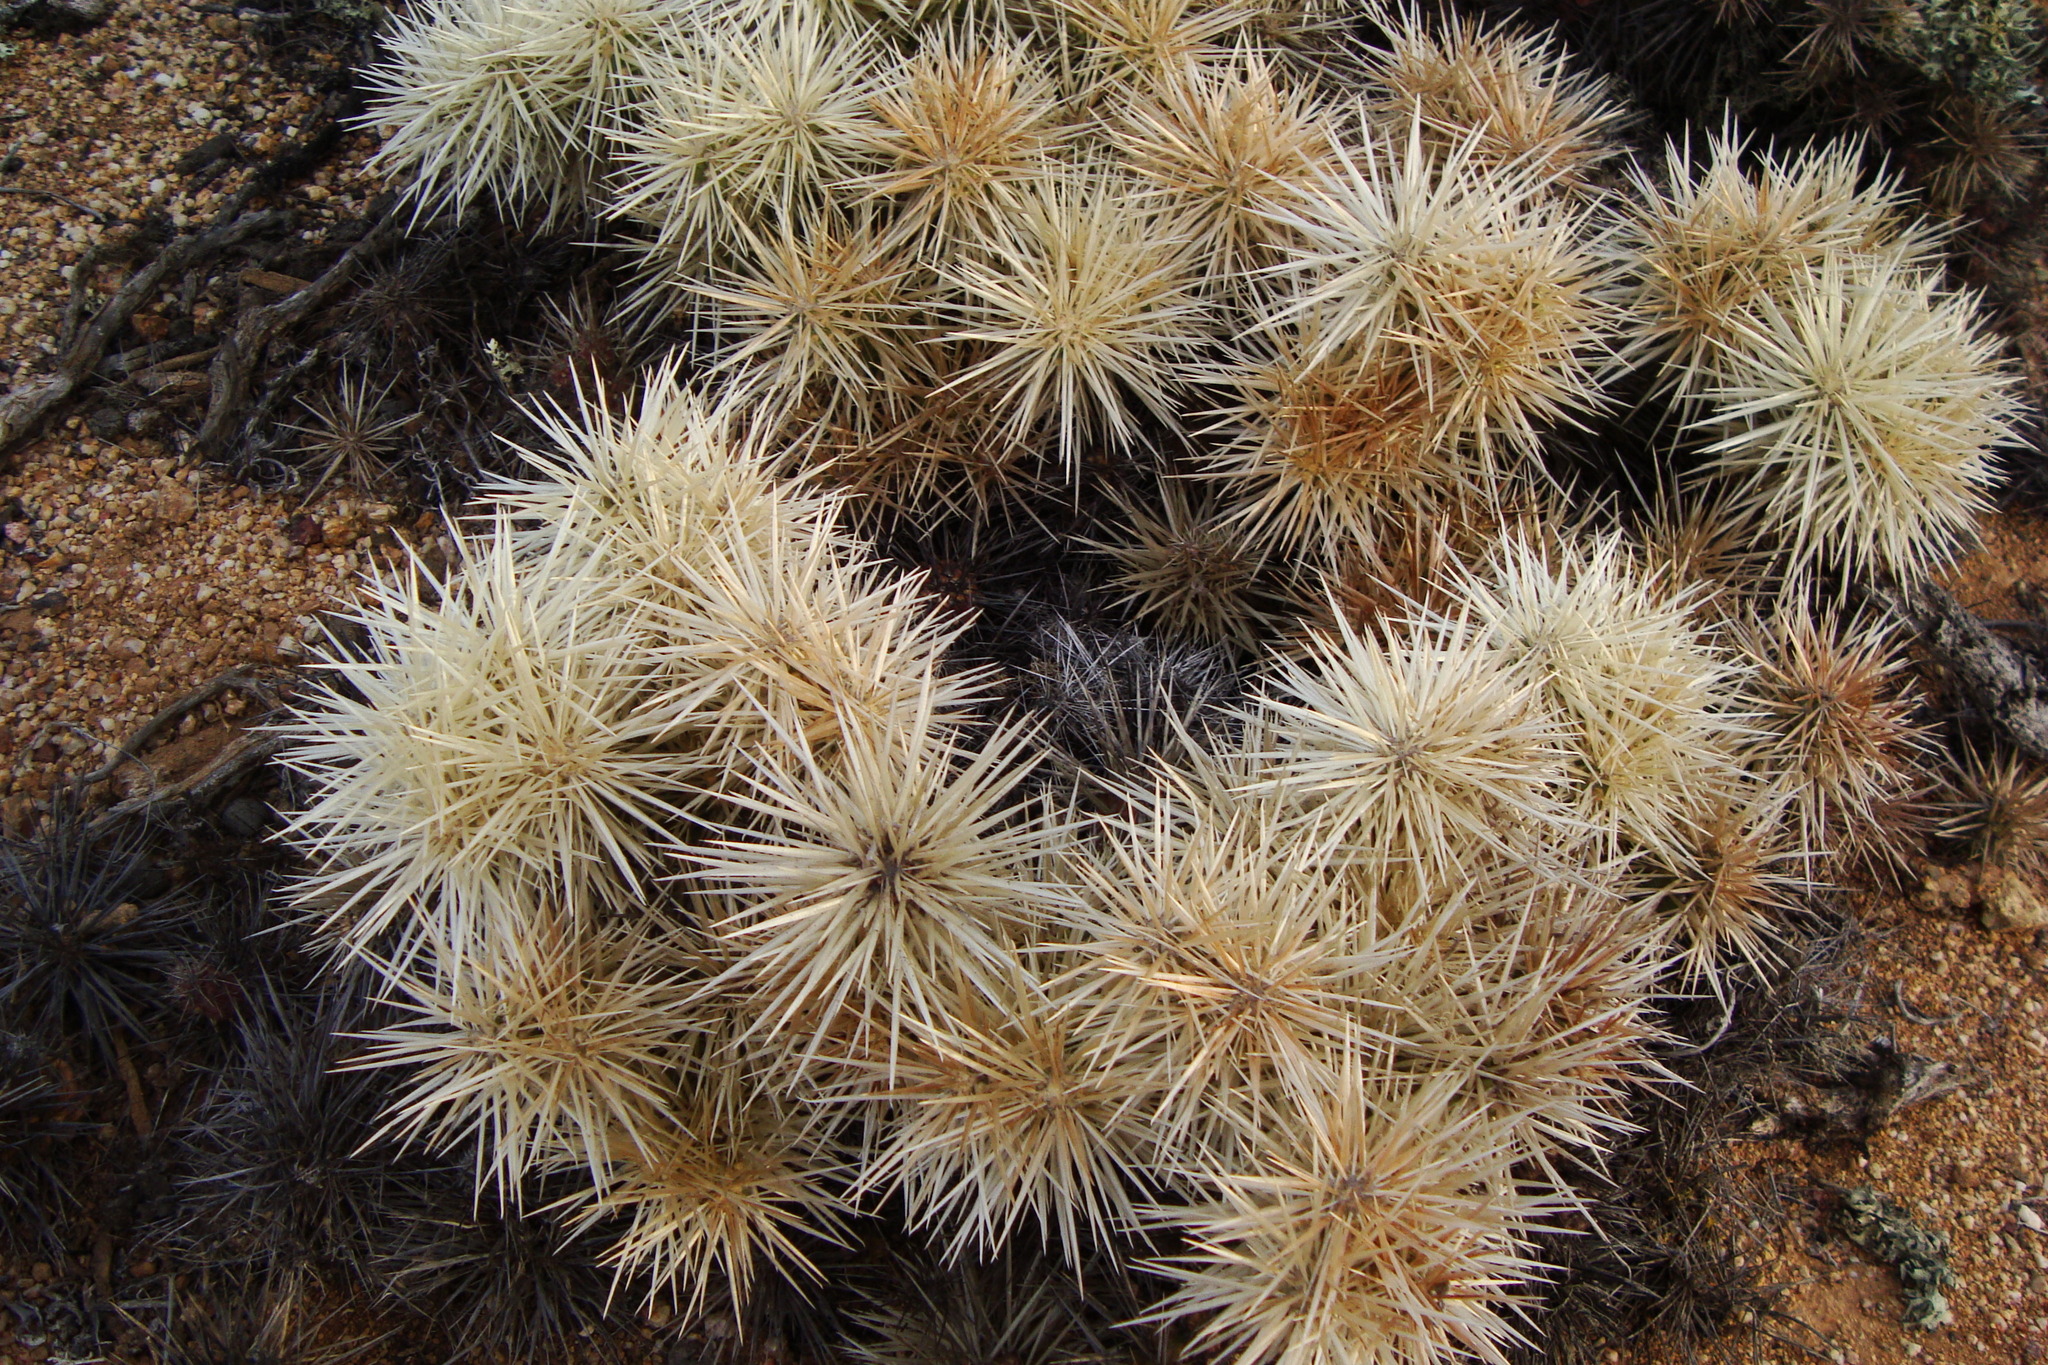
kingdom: Plantae
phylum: Tracheophyta
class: Magnoliopsida
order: Caryophyllales
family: Cactaceae
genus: Cylindropuntia
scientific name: Cylindropuntia tunicata
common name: Sheathed cholla
